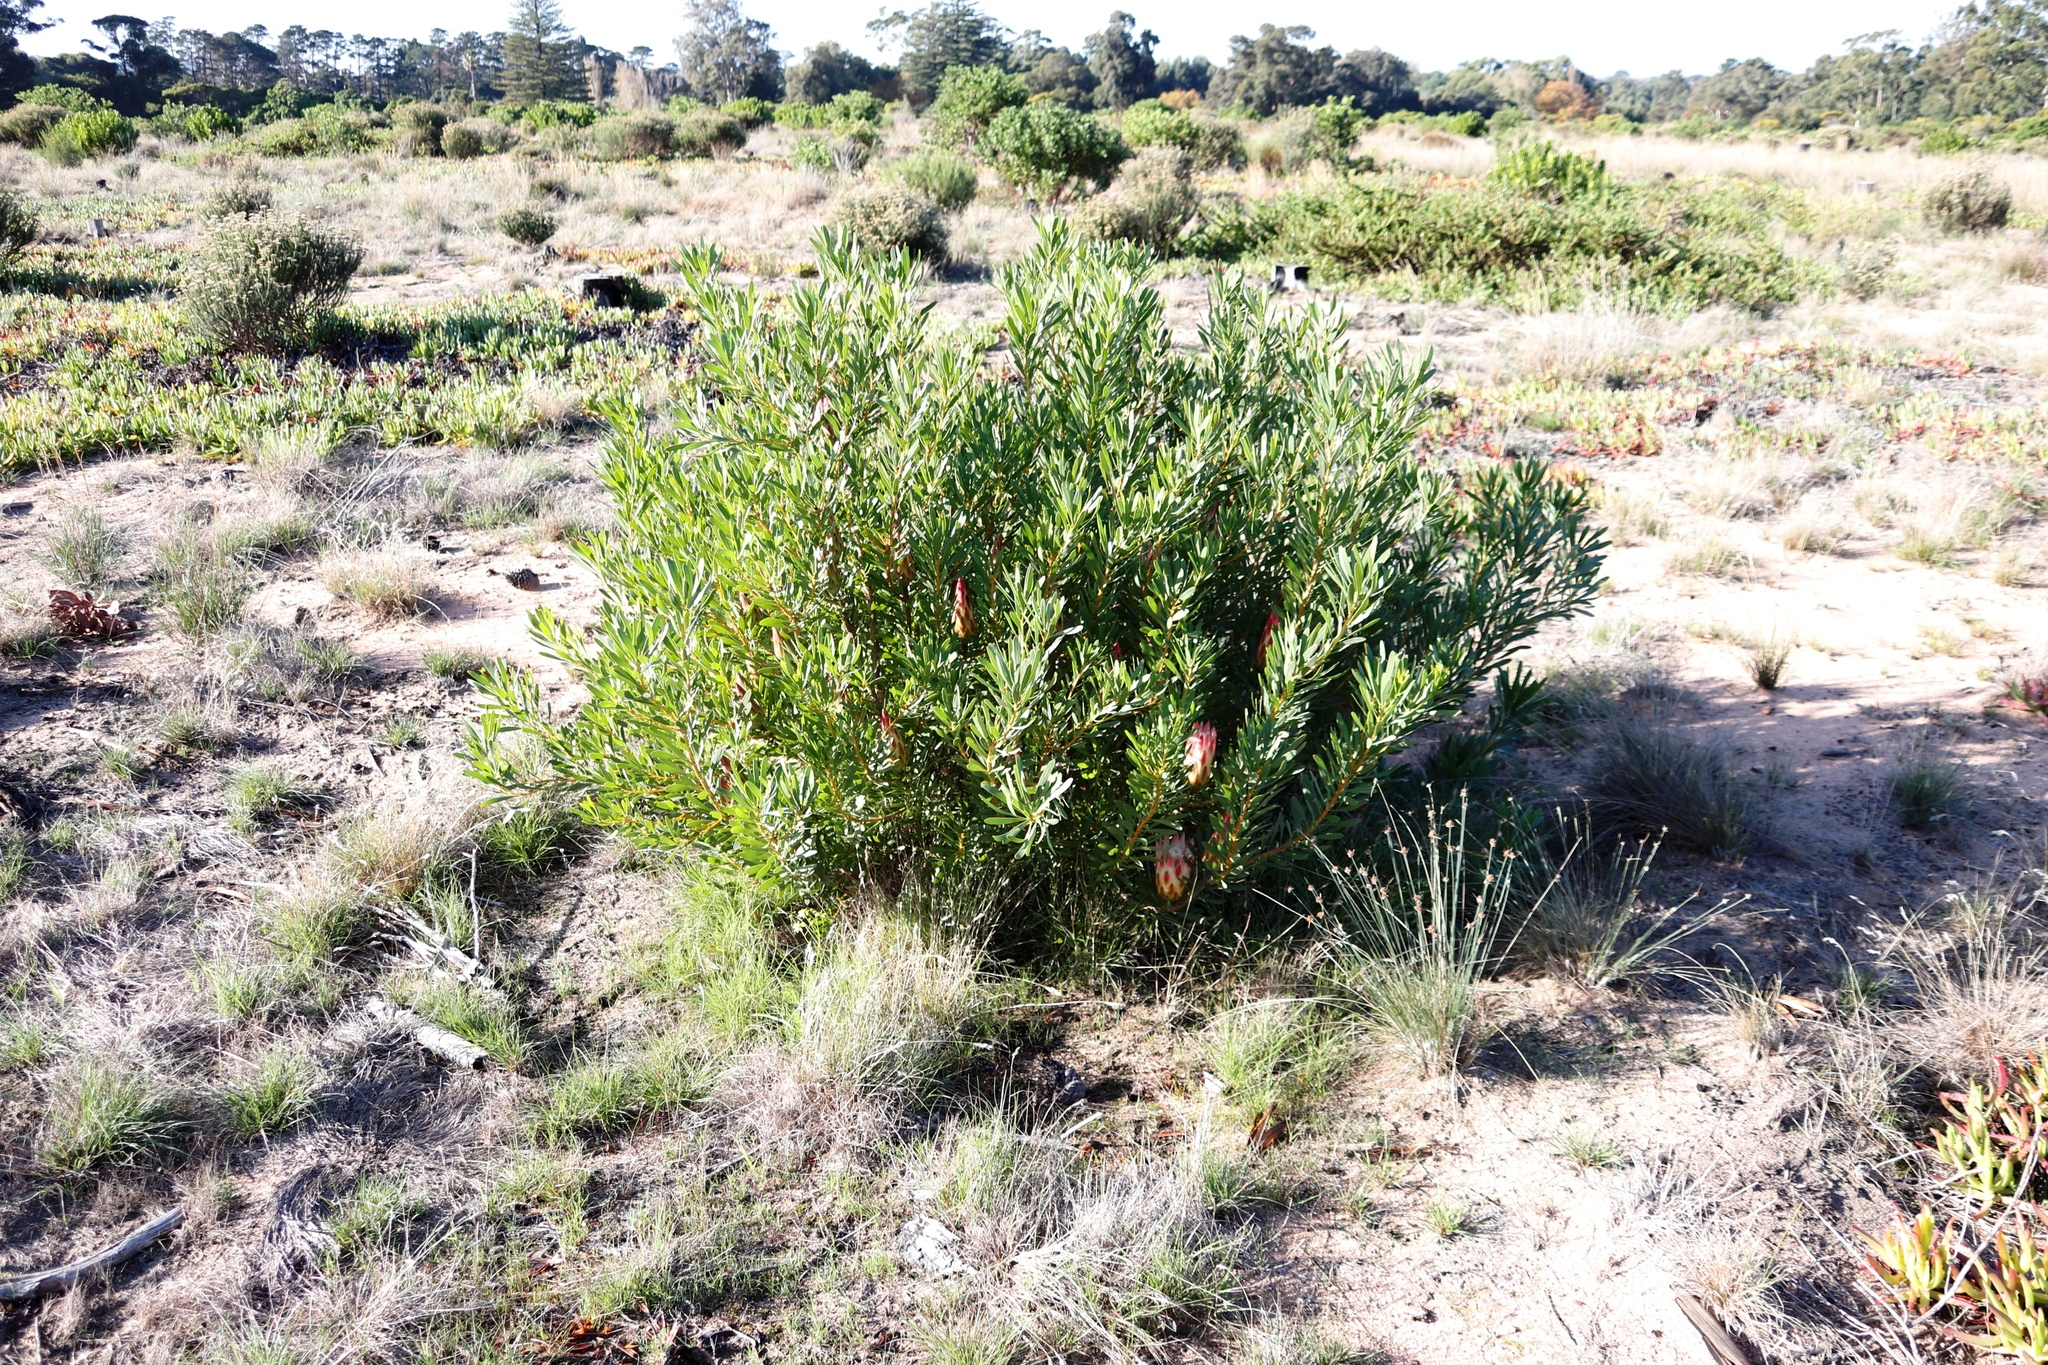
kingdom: Plantae
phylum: Tracheophyta
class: Magnoliopsida
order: Proteales
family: Proteaceae
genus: Protea
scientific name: Protea repens
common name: Sugarbush
